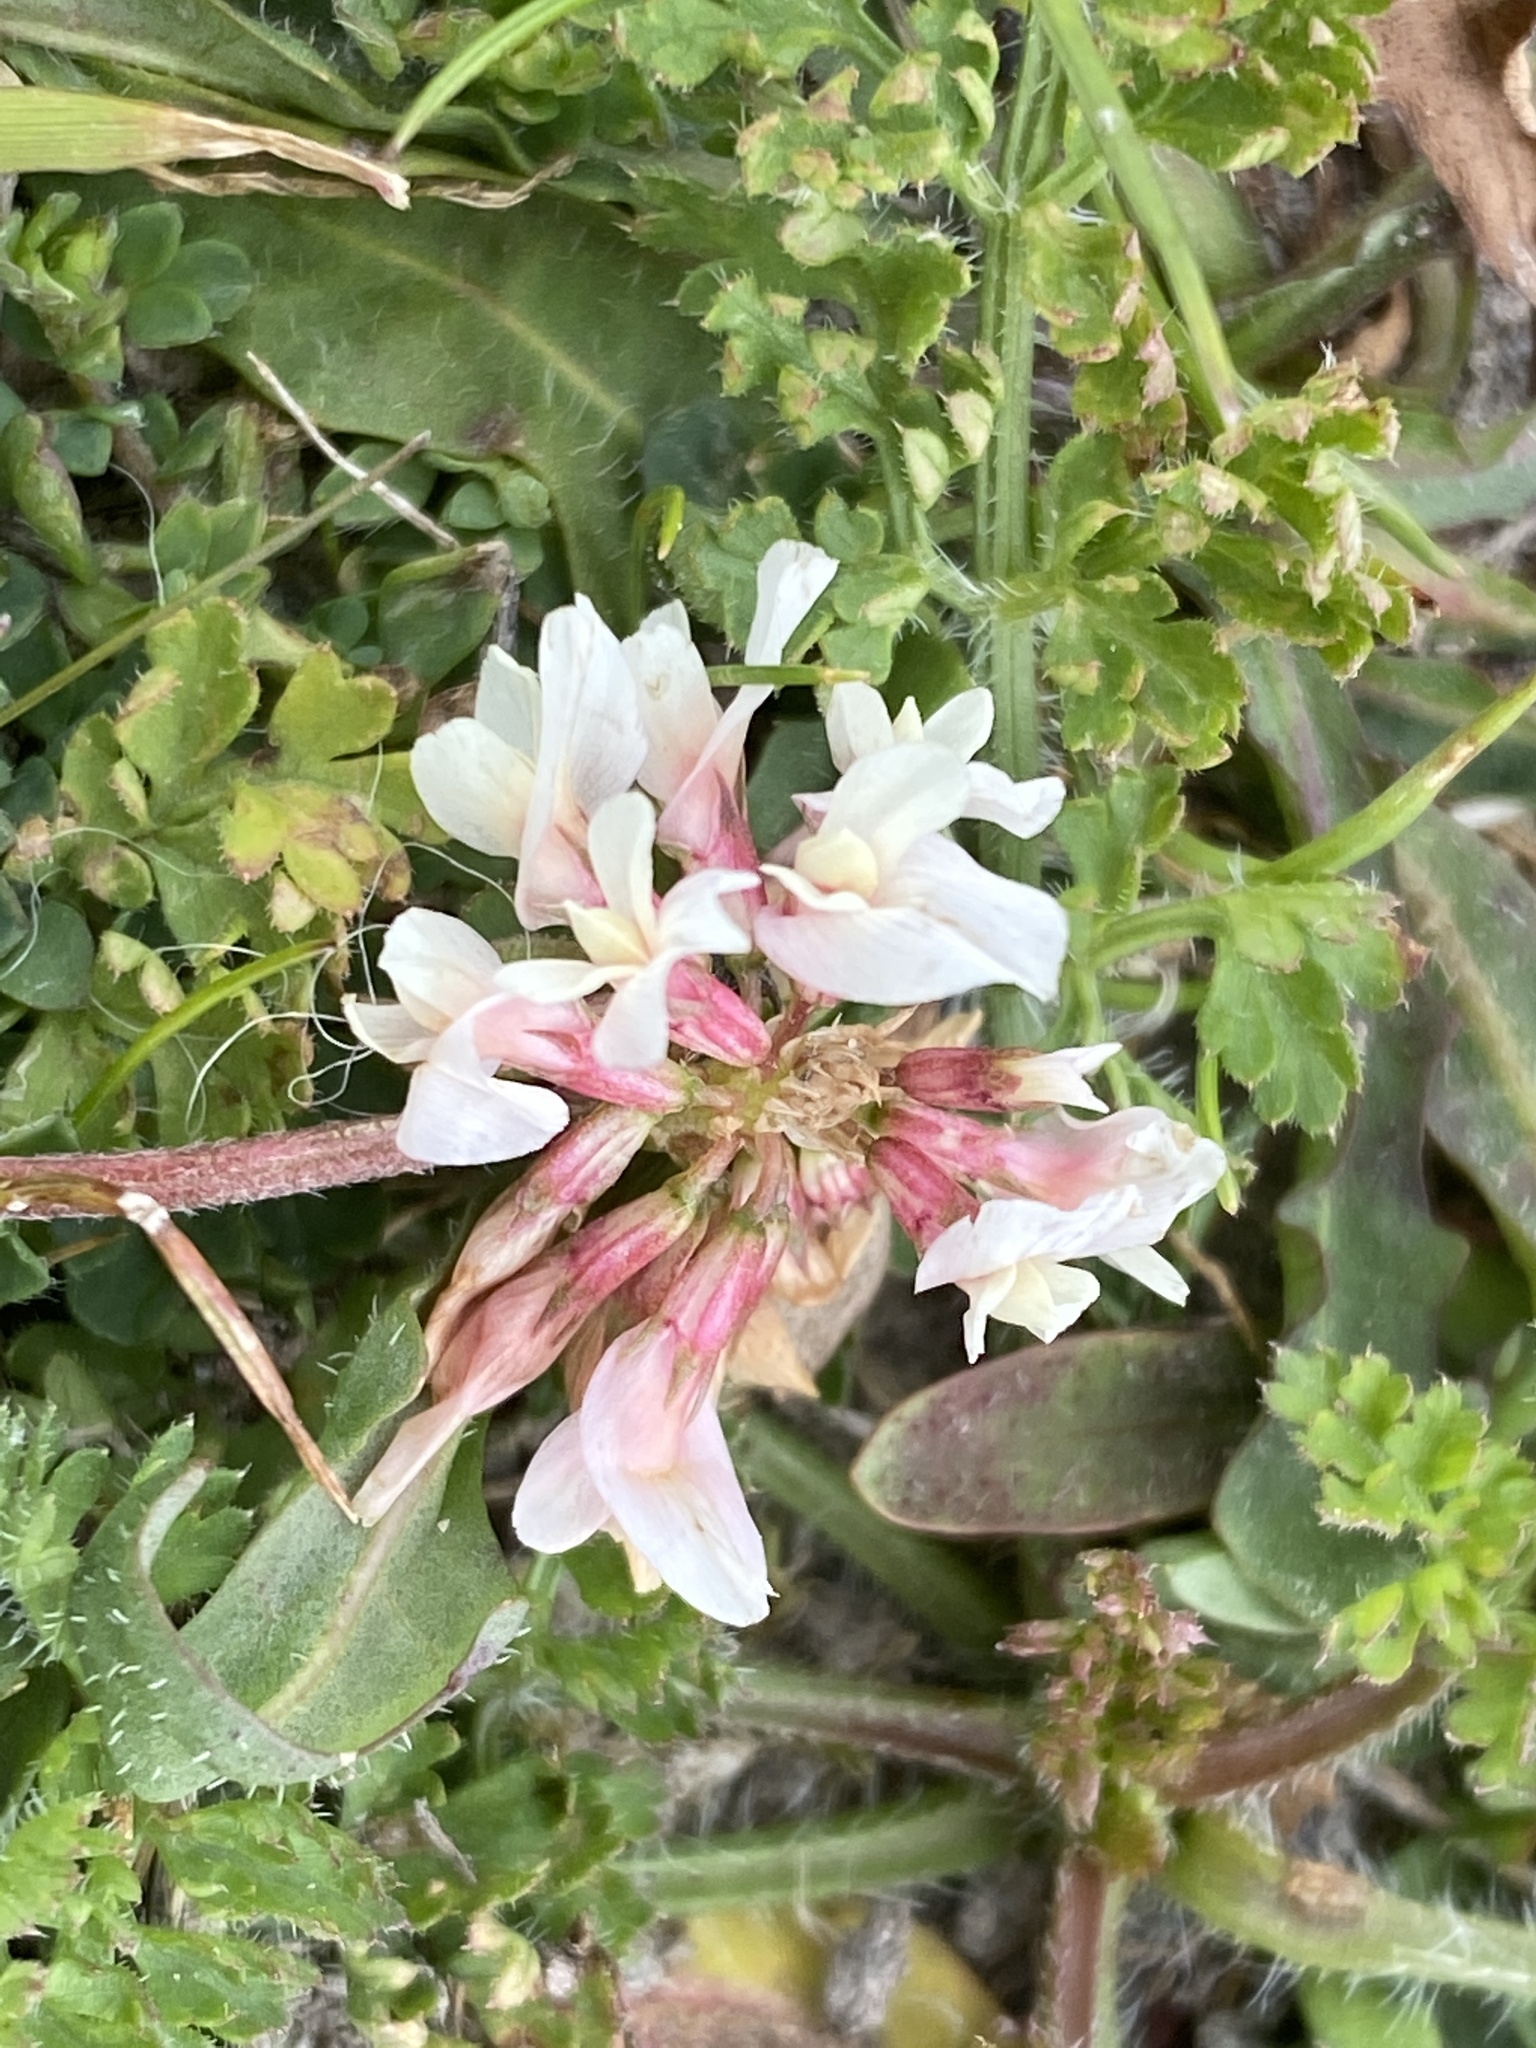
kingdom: Plantae
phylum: Tracheophyta
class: Magnoliopsida
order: Fabales
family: Fabaceae
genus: Trifolium
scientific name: Trifolium repens
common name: White clover
